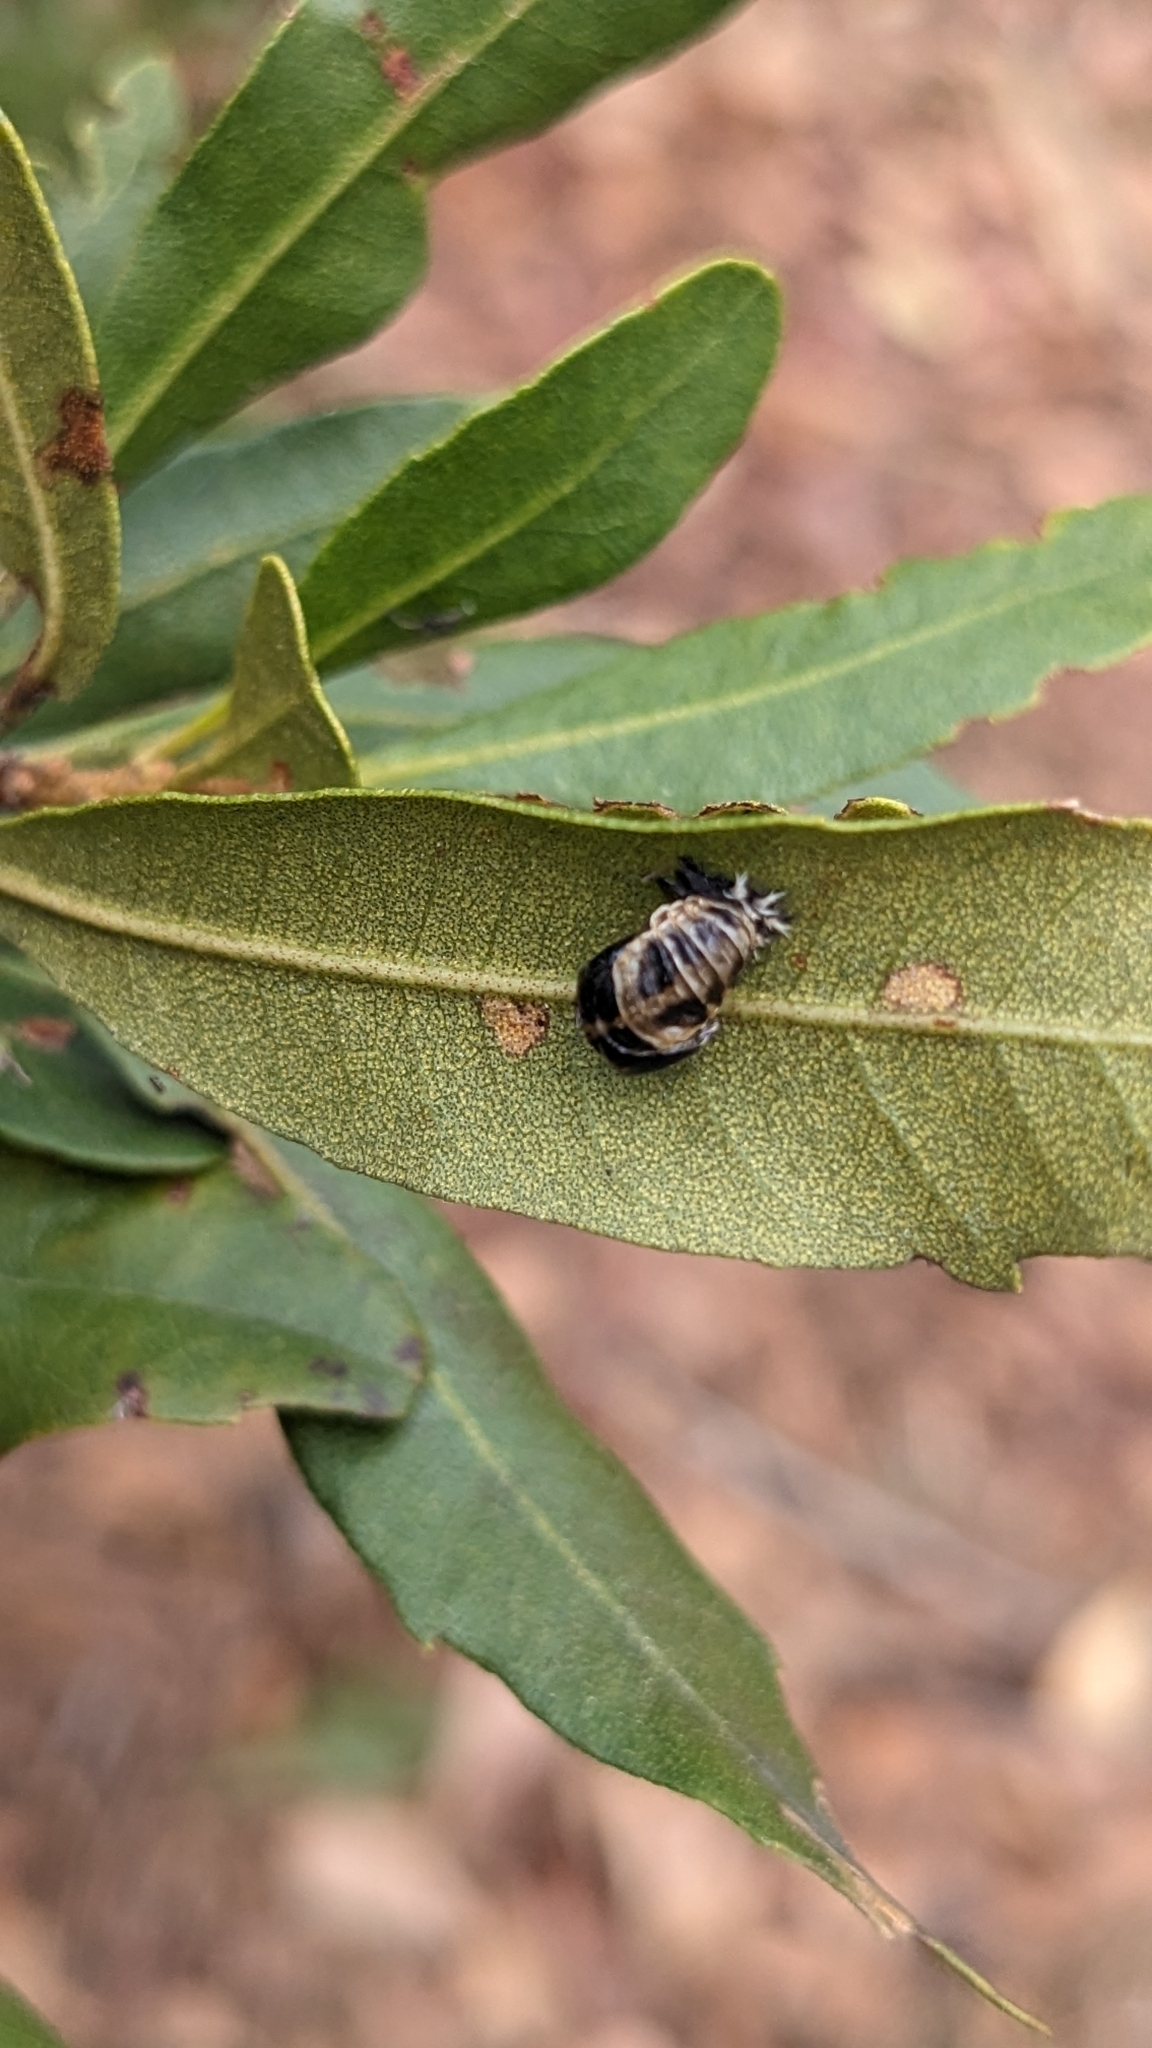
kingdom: Animalia
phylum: Arthropoda
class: Insecta
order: Coleoptera
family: Coccinellidae
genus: Harmonia
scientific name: Harmonia axyridis
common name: Harlequin ladybird
